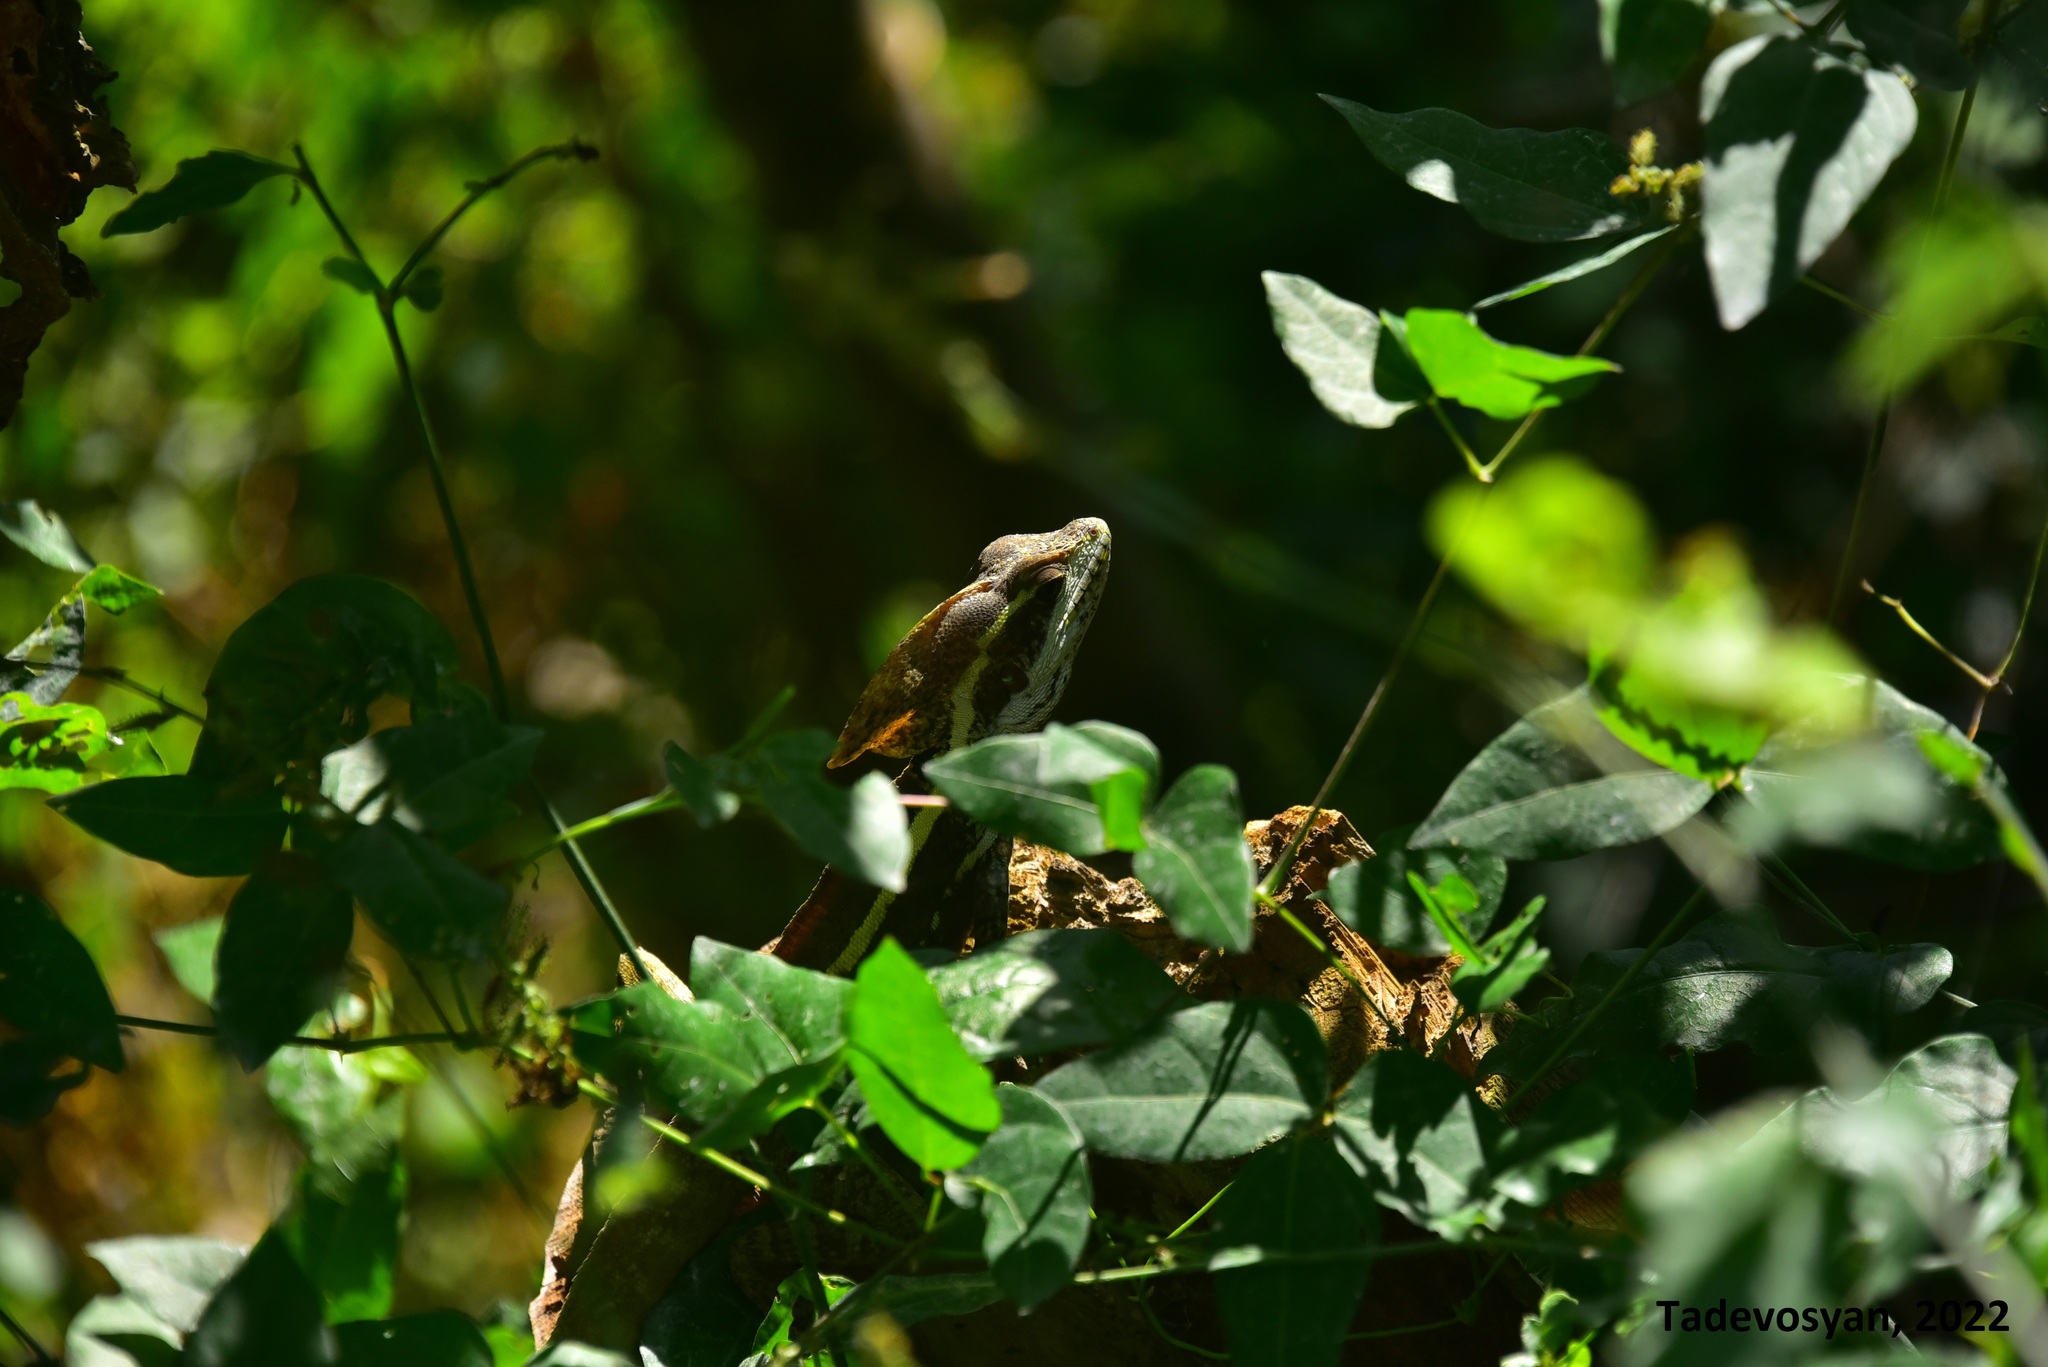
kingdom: Animalia
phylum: Chordata
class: Squamata
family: Corytophanidae
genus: Basiliscus
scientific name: Basiliscus vittatus
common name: Brown basilisk
